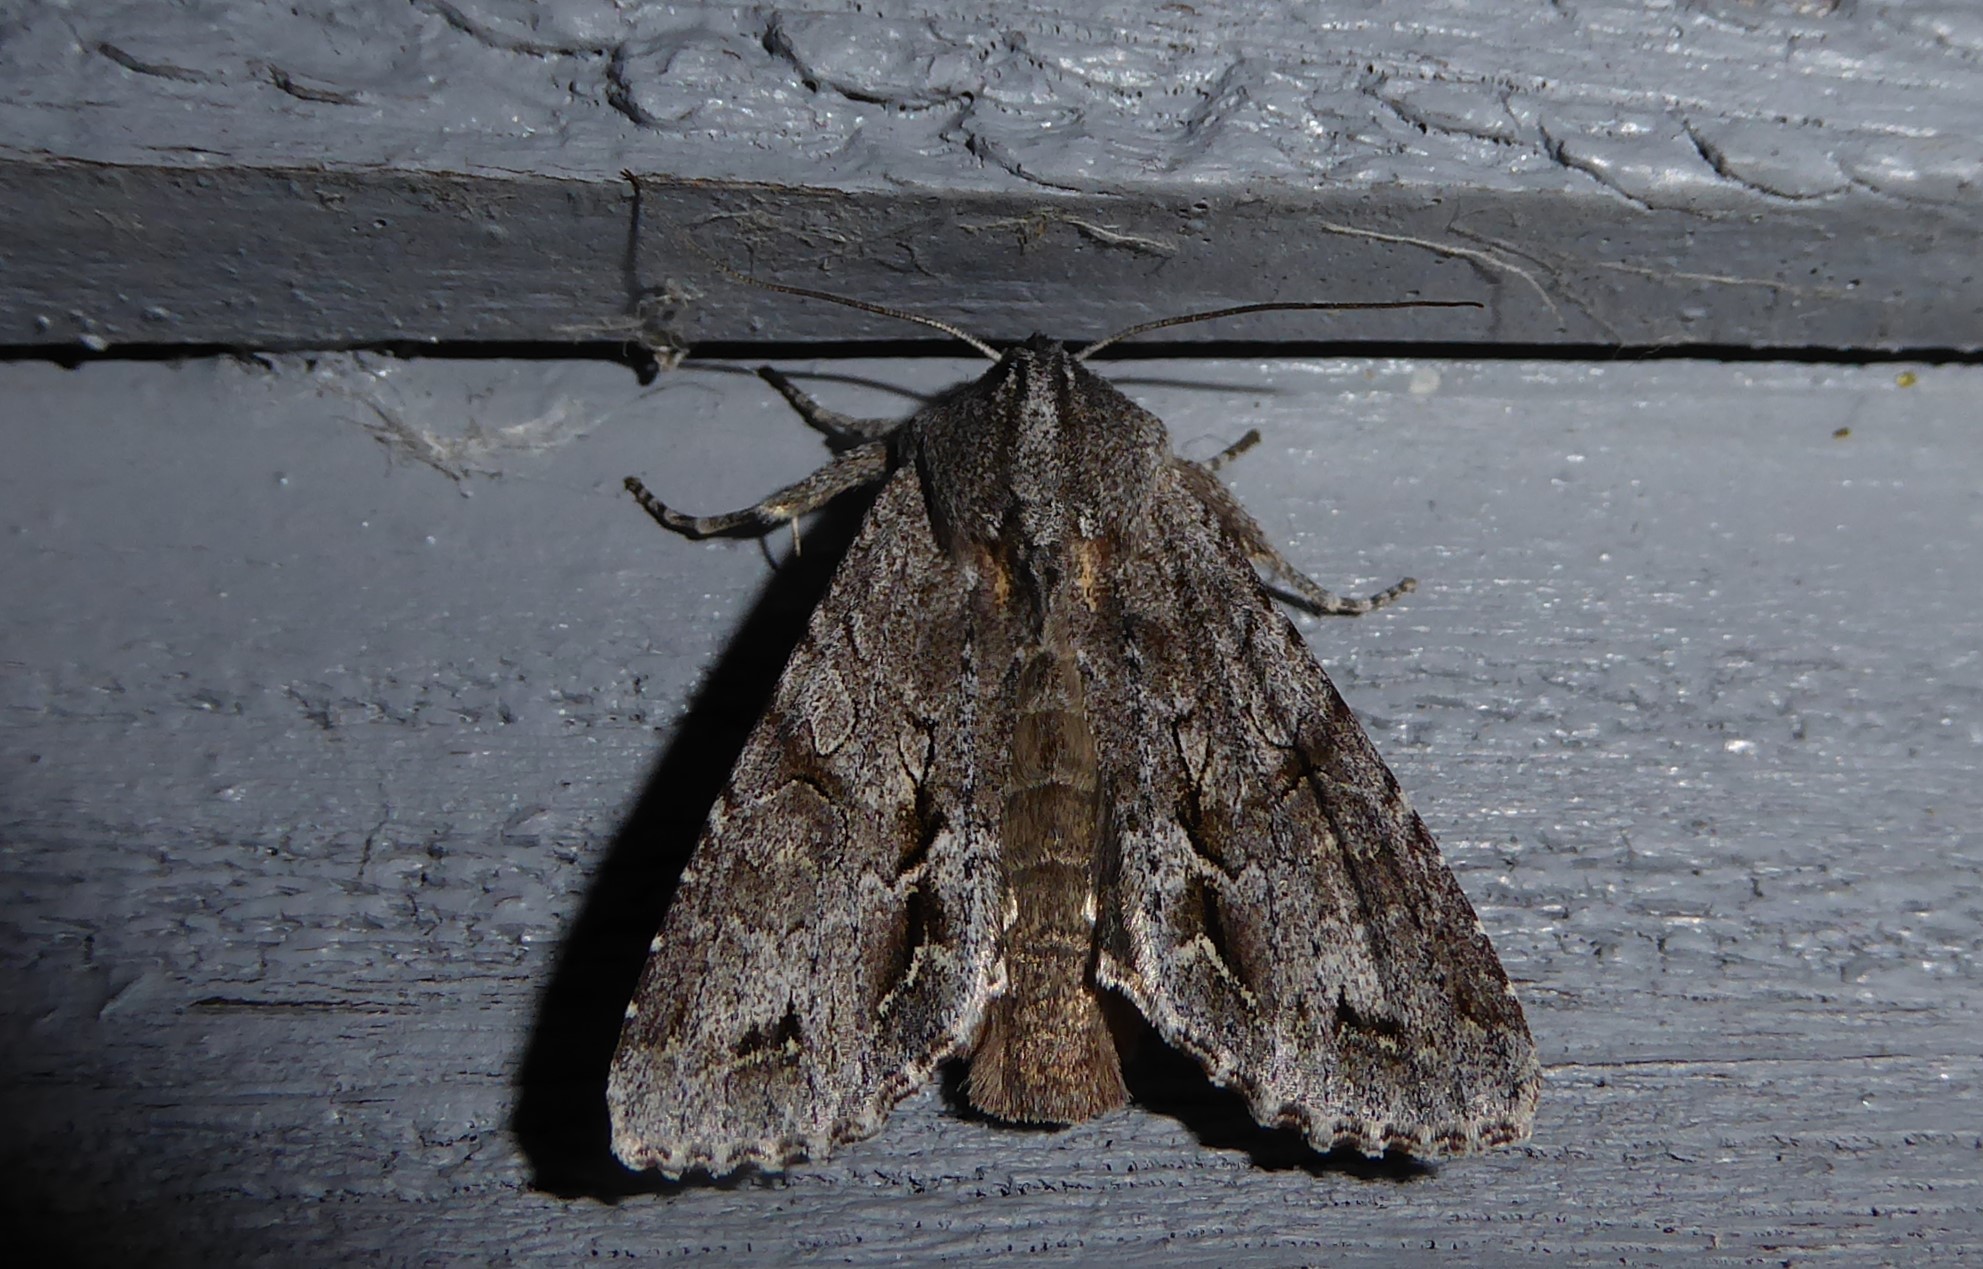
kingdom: Animalia
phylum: Arthropoda
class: Insecta
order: Lepidoptera
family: Noctuidae
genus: Ichneutica
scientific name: Ichneutica
